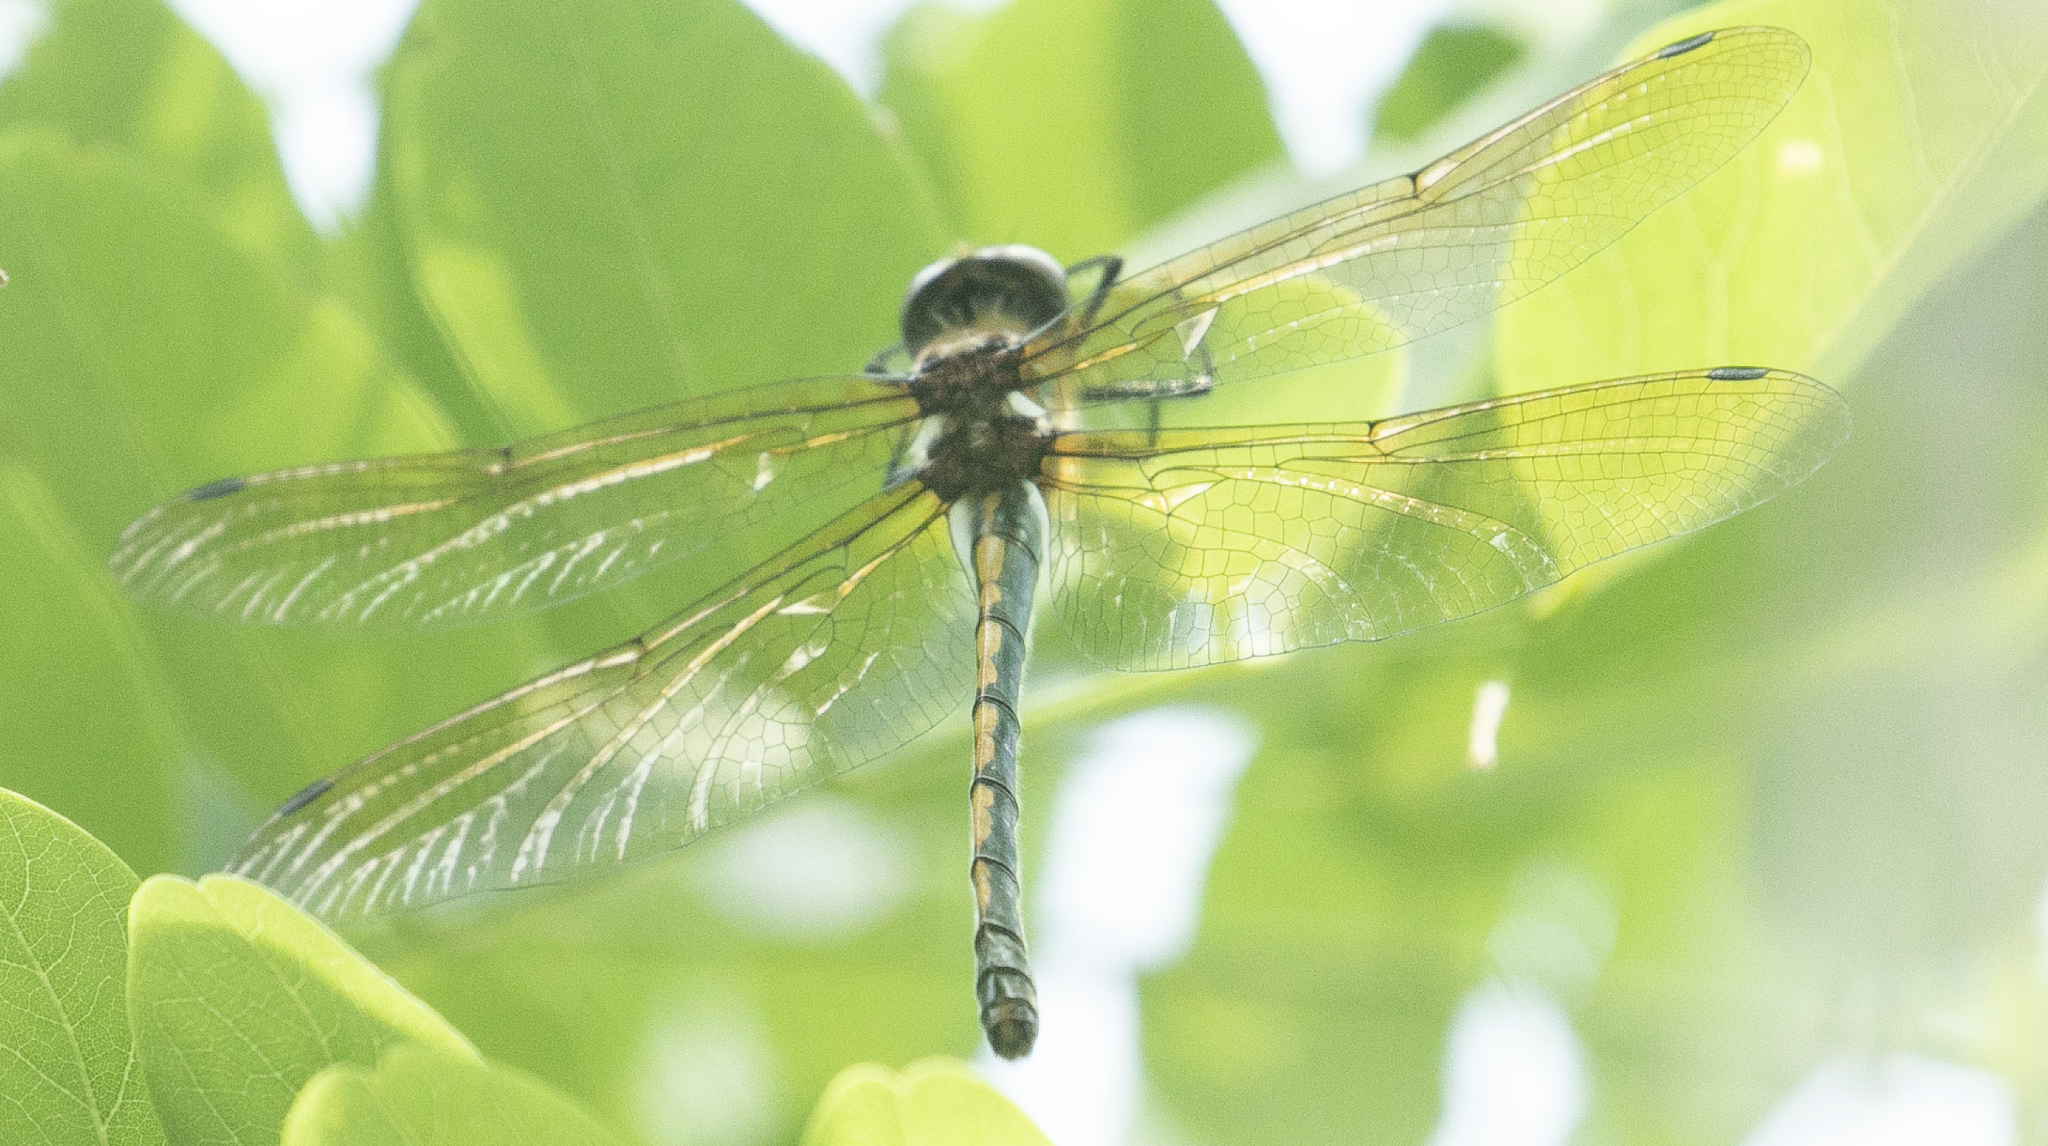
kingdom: Animalia
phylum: Arthropoda
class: Insecta
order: Odonata
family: Corduliidae
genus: Oxygastra
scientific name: Oxygastra curtisii
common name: Orange-spotted emerald
